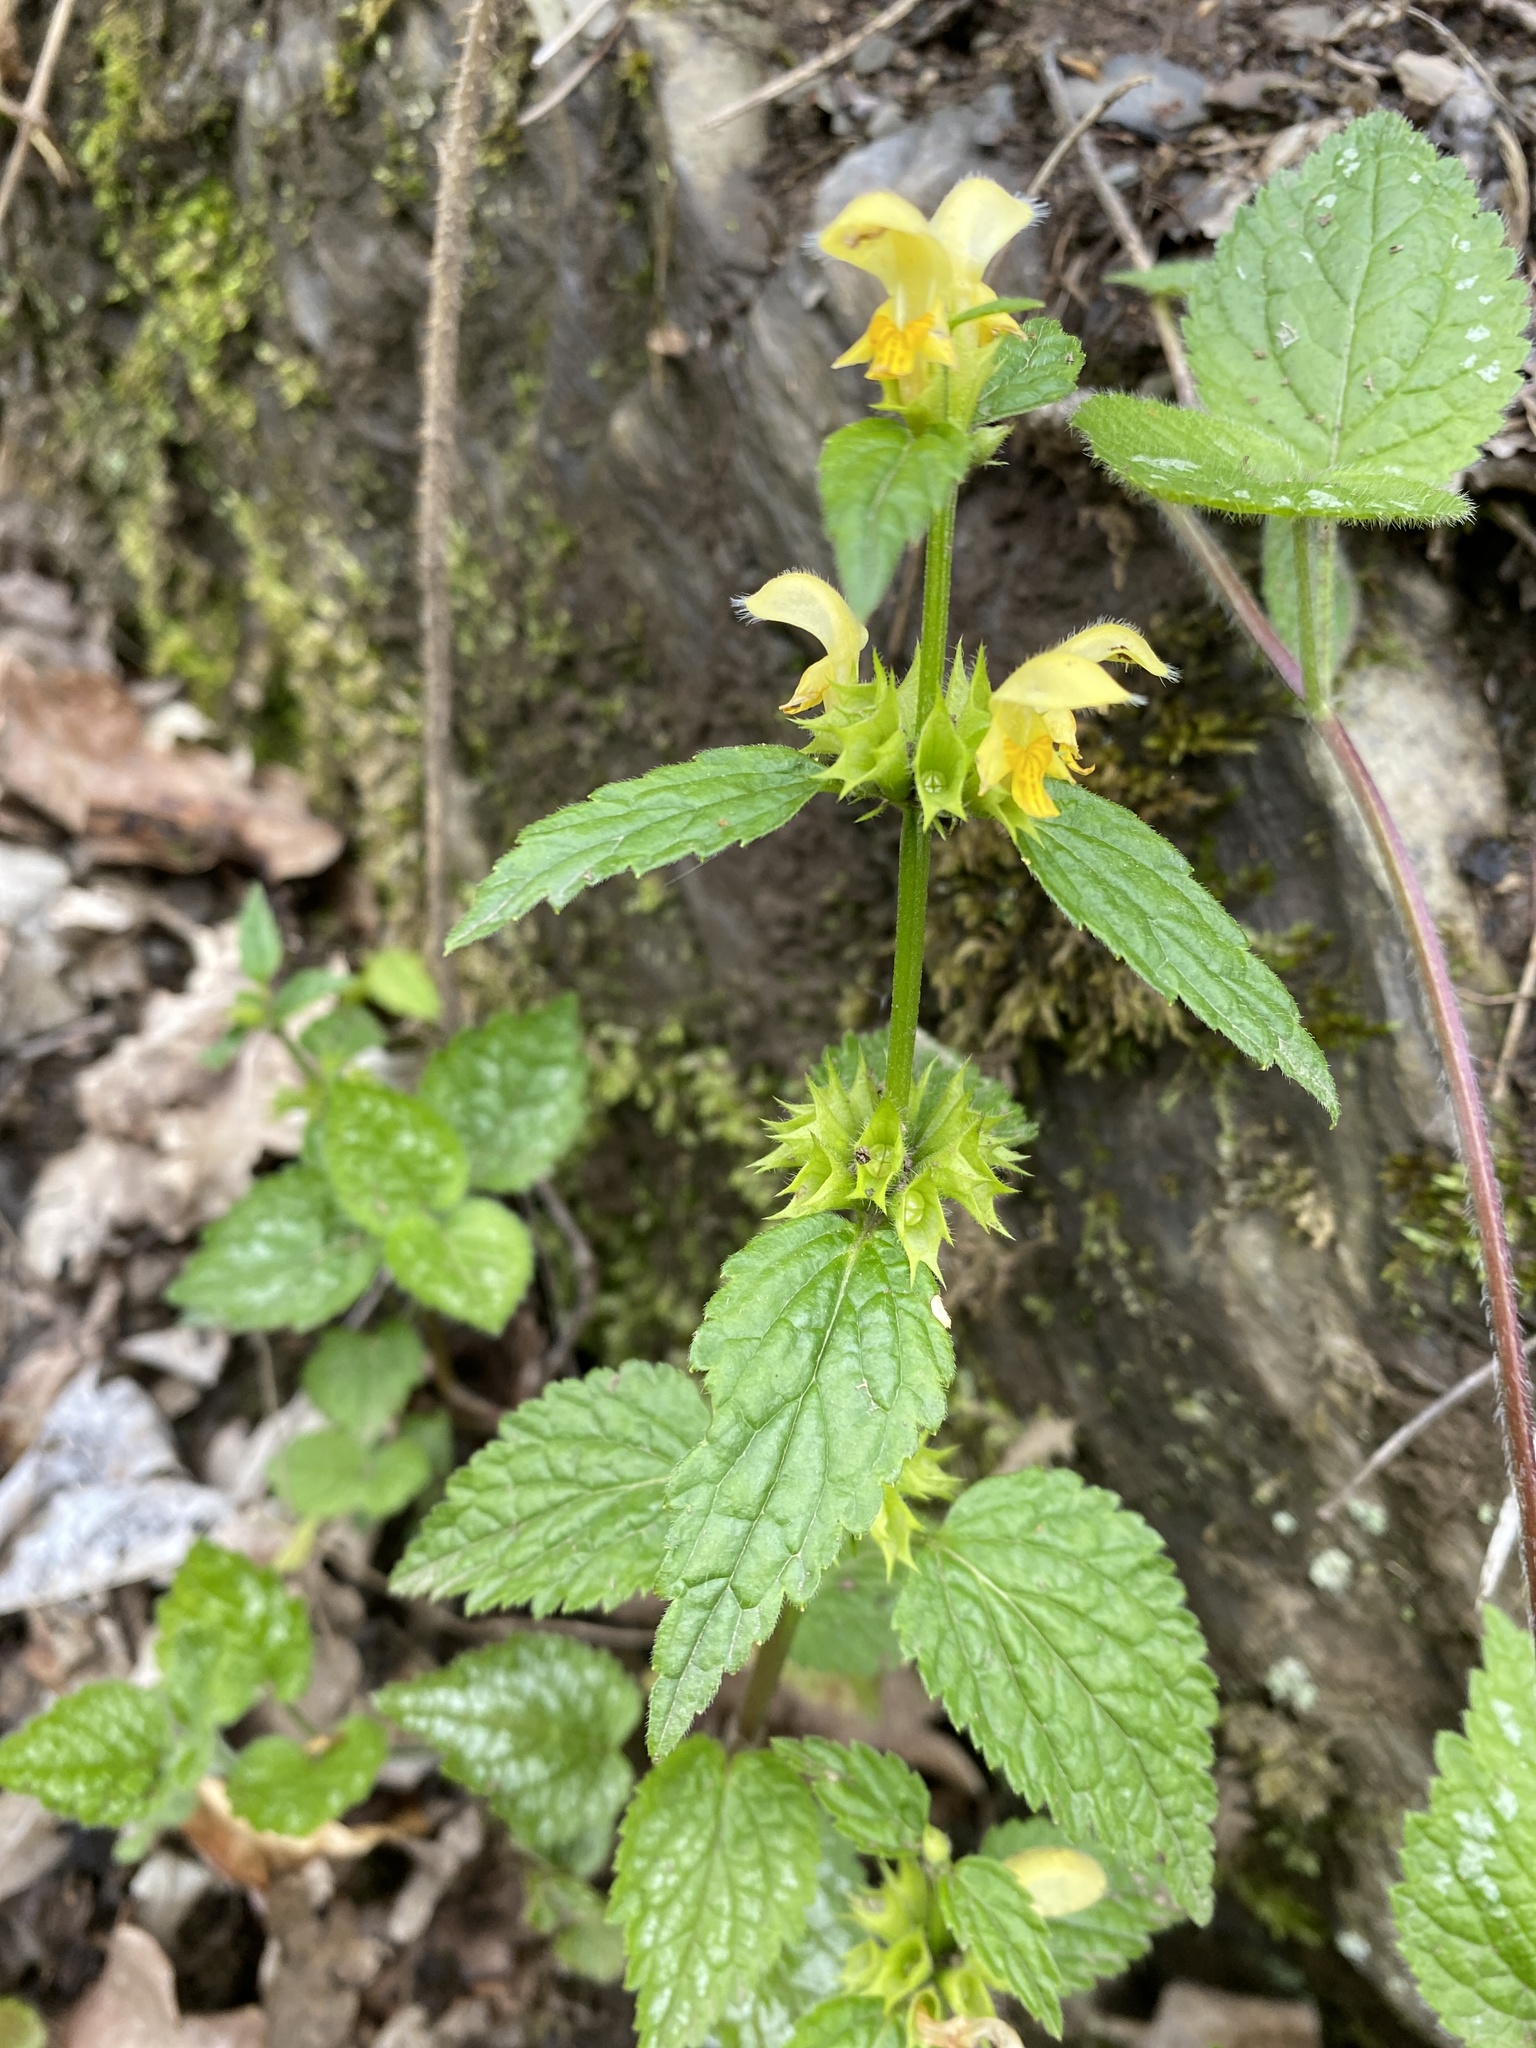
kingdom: Plantae
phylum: Tracheophyta
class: Magnoliopsida
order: Lamiales
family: Lamiaceae
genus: Lamium
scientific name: Lamium galeobdolon
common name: Yellow archangel
